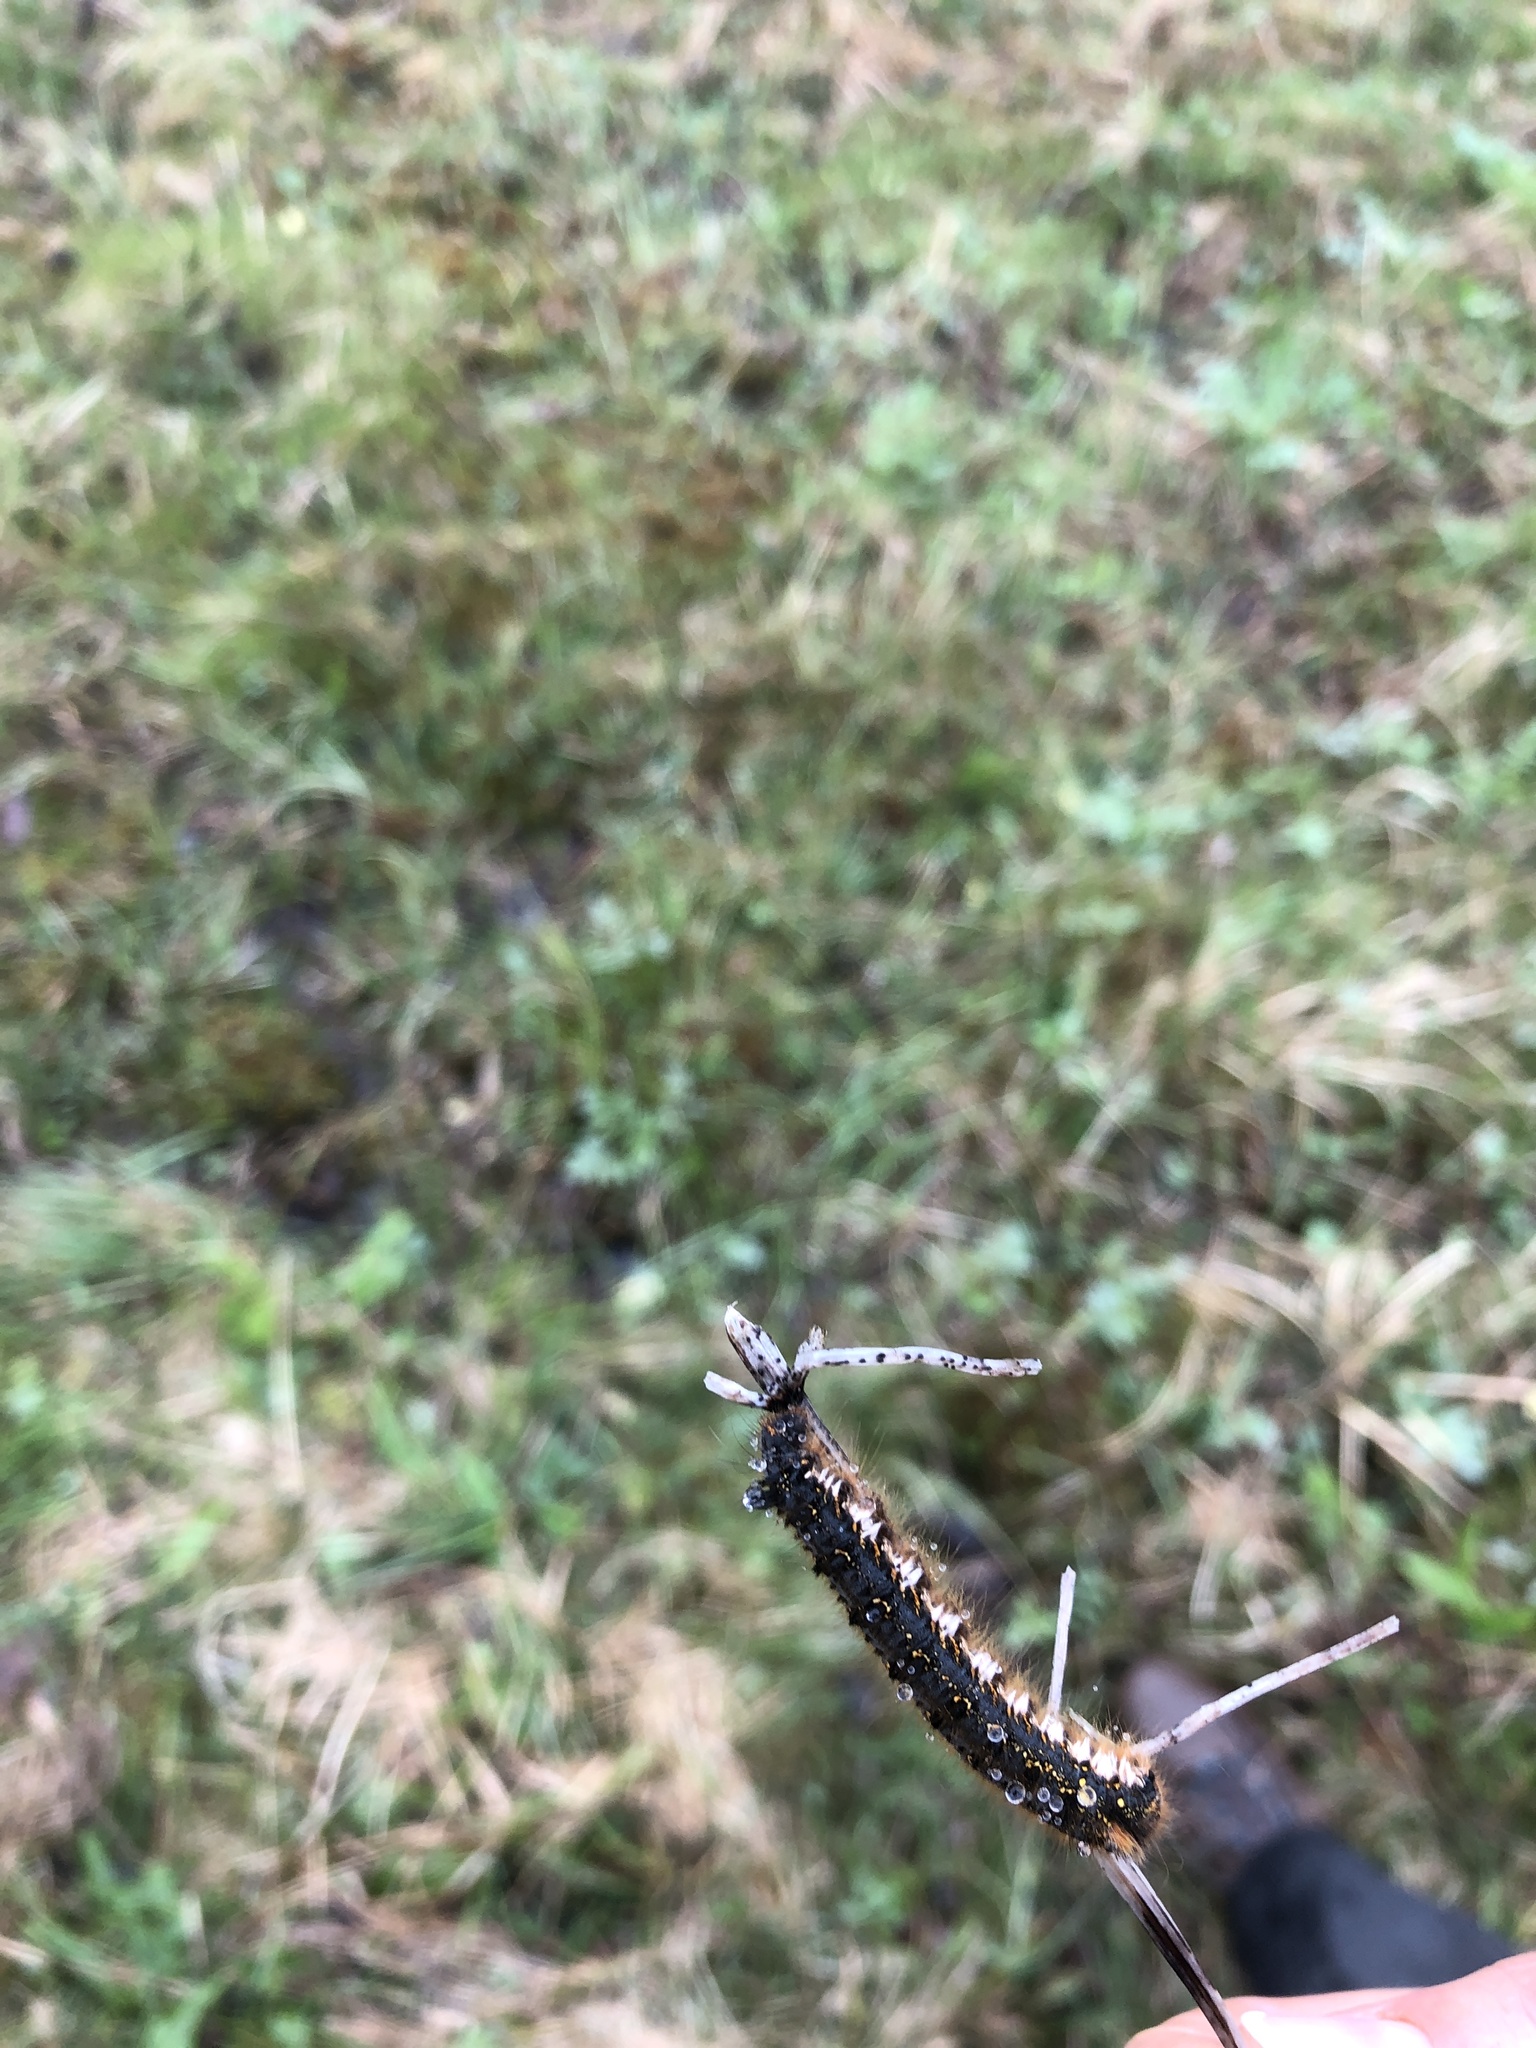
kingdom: Animalia
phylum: Arthropoda
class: Insecta
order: Lepidoptera
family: Lasiocampidae
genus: Euthrix
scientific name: Euthrix potatoria
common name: Drinker
